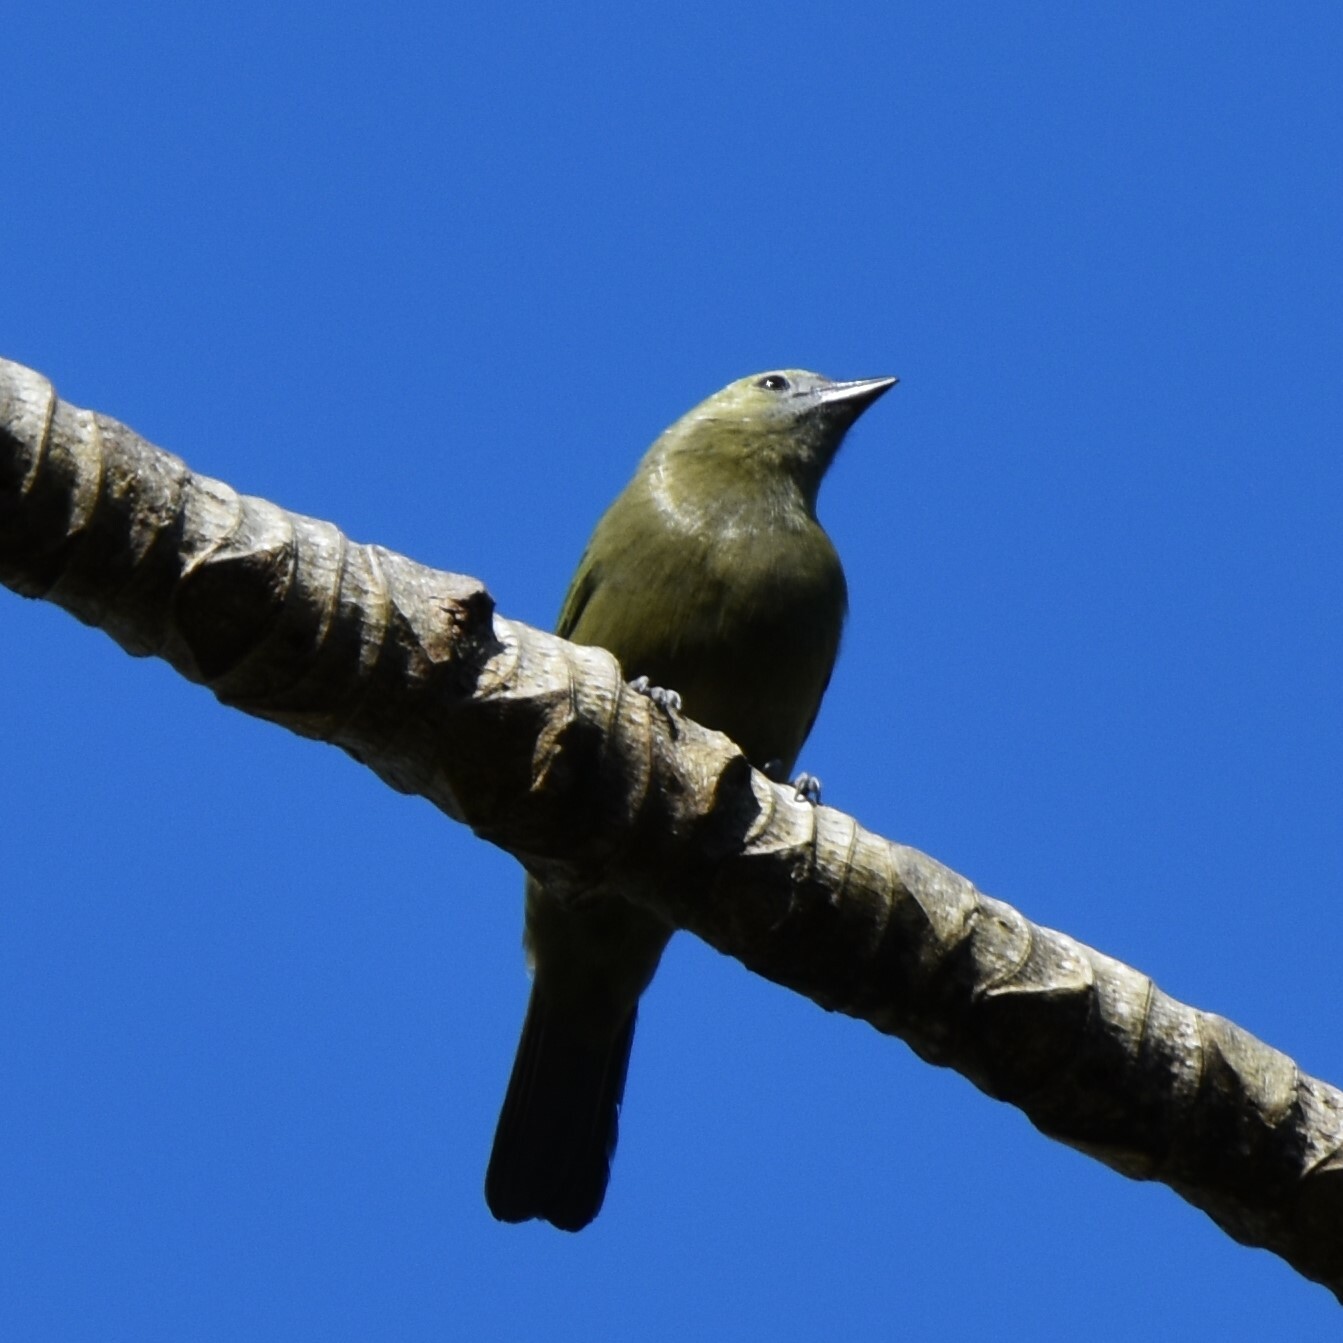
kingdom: Animalia
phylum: Chordata
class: Aves
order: Passeriformes
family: Thraupidae
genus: Thraupis
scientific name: Thraupis palmarum
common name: Palm tanager
